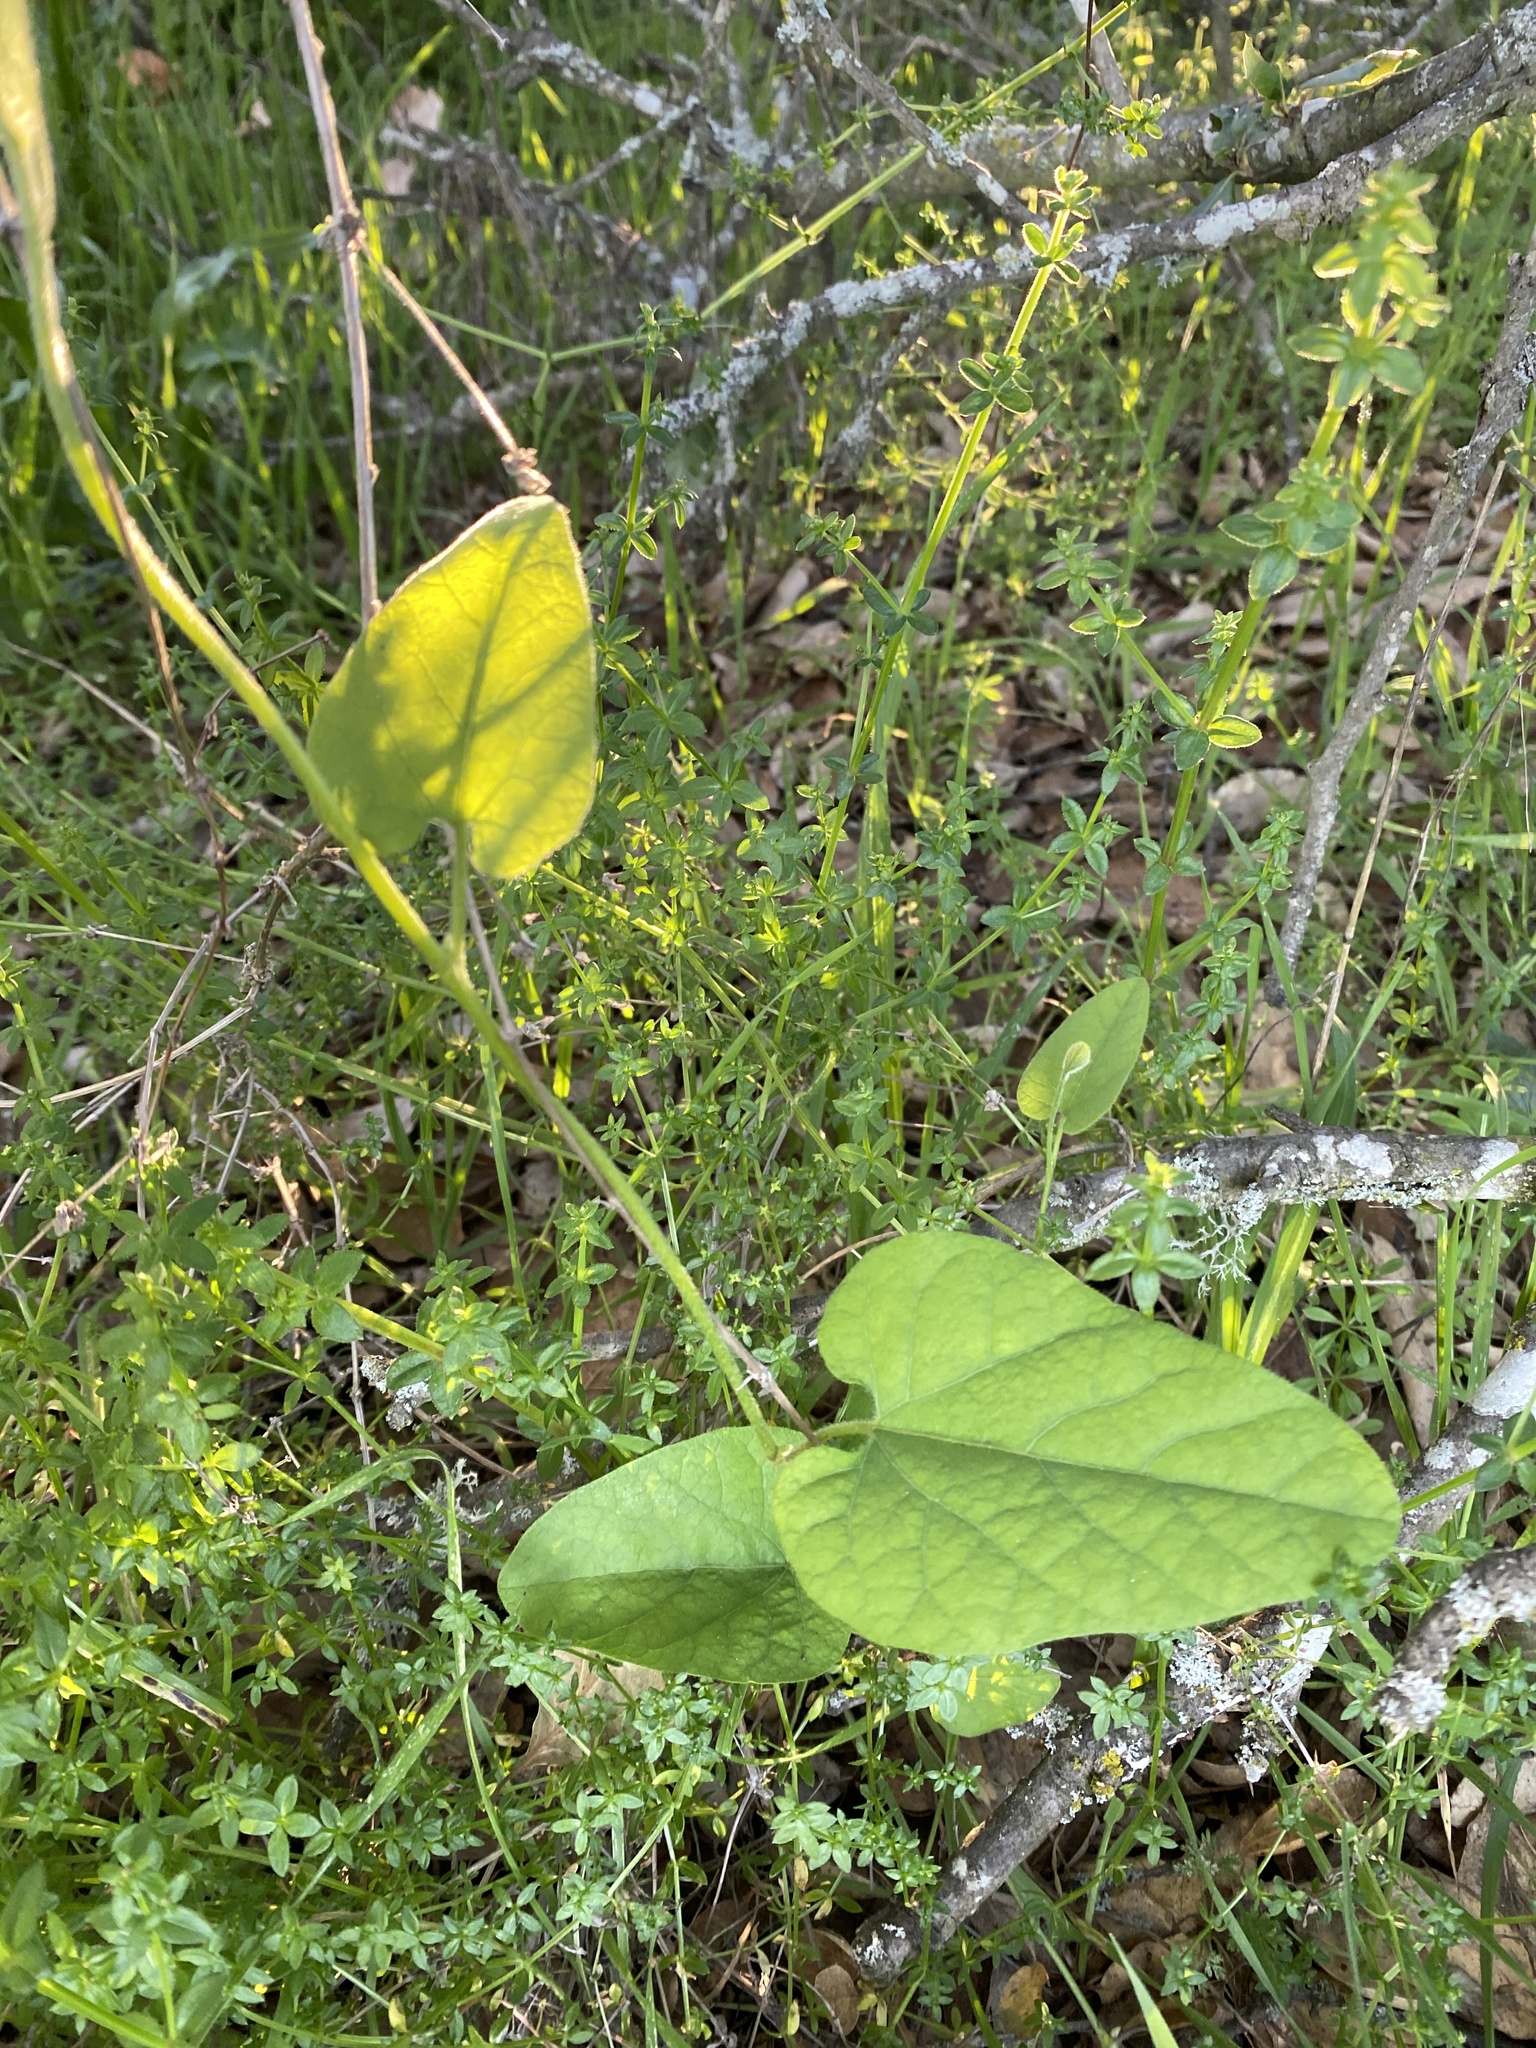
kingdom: Plantae
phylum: Tracheophyta
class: Magnoliopsida
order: Piperales
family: Aristolochiaceae
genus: Isotrema
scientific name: Isotrema californicum
